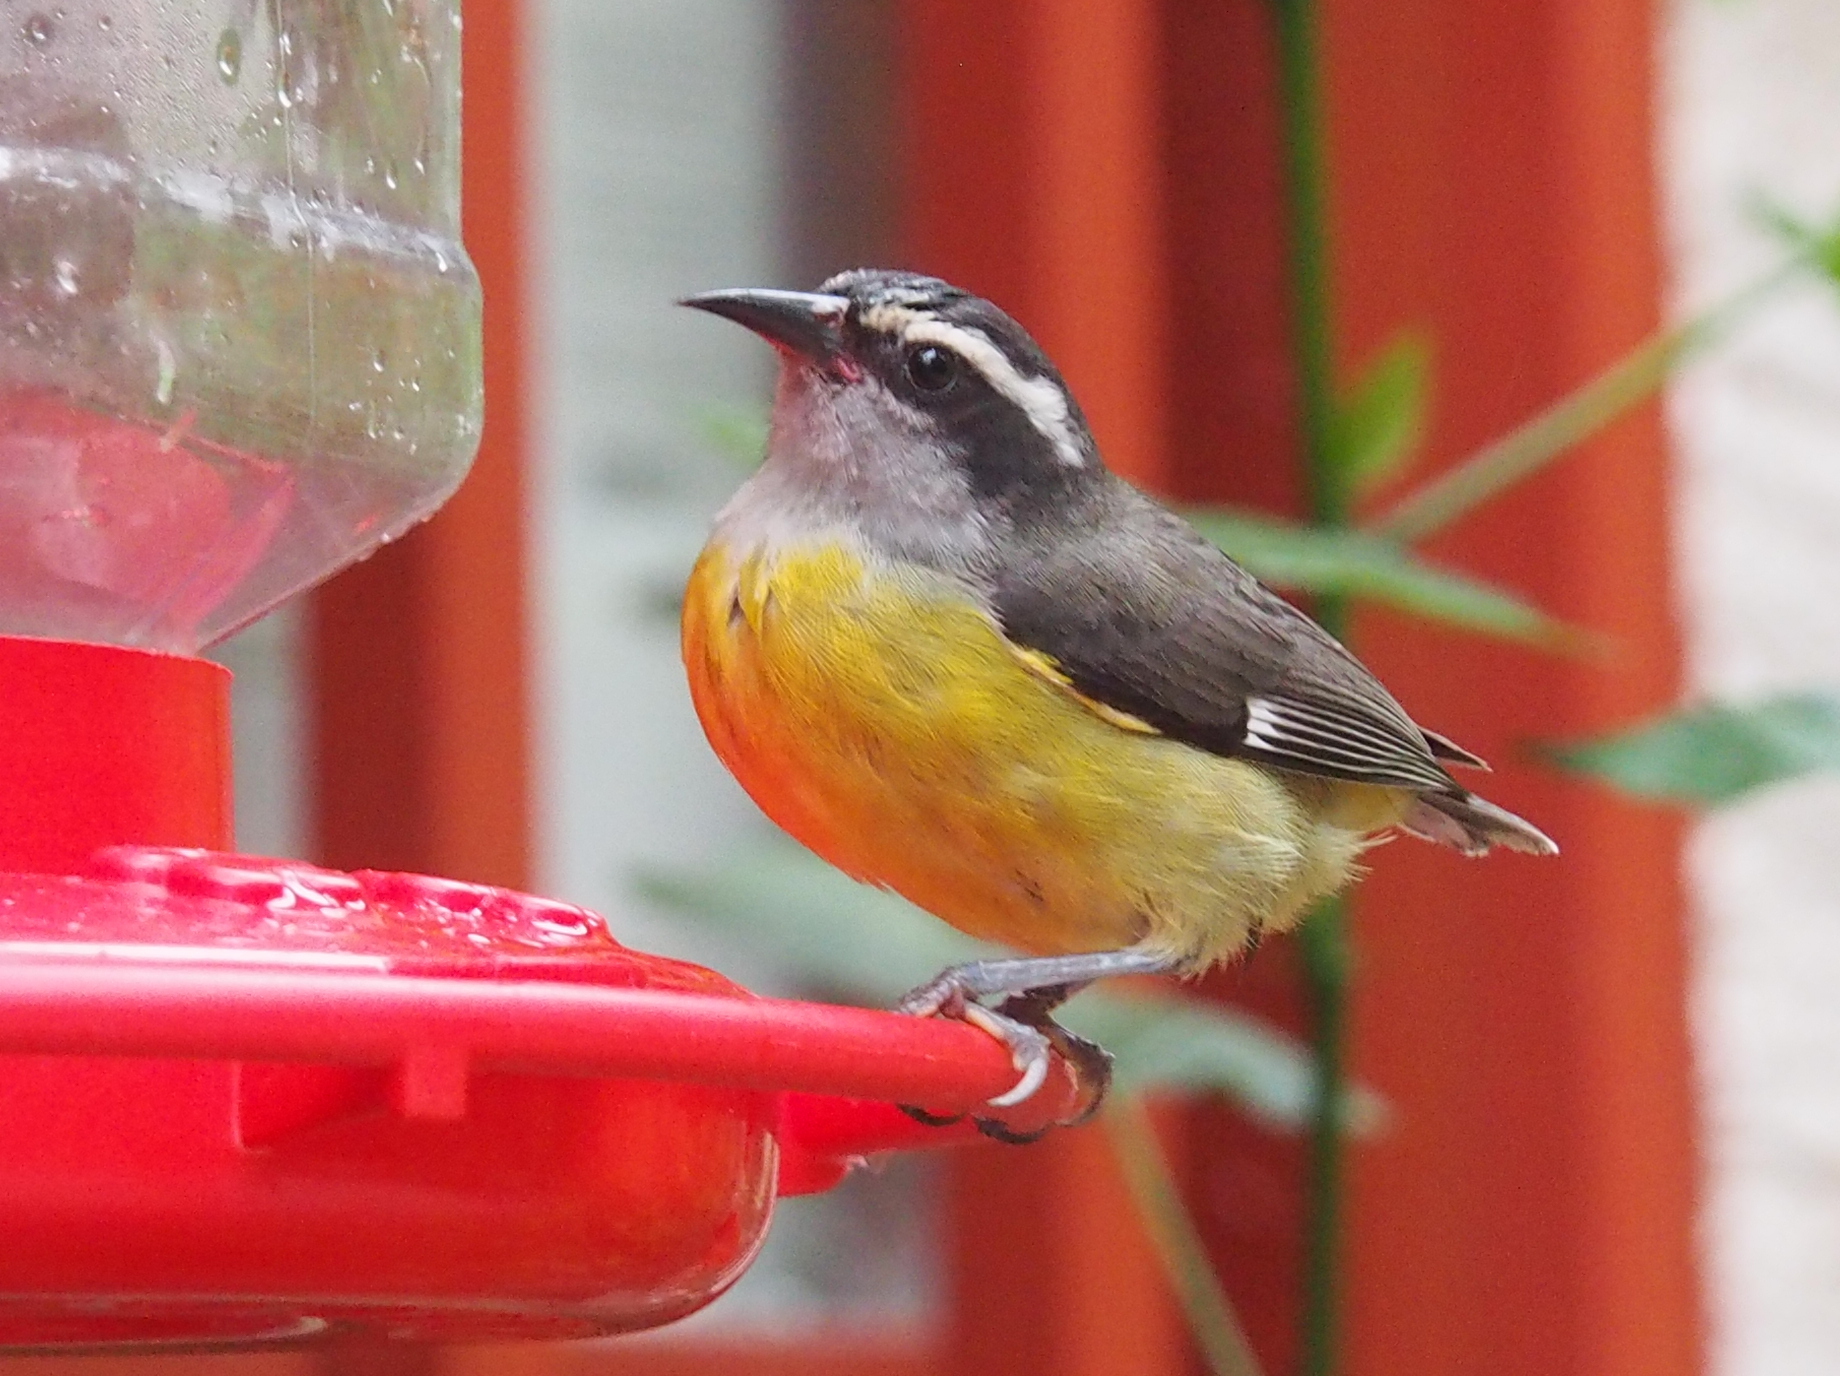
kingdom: Animalia
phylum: Chordata
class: Aves
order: Passeriformes
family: Thraupidae
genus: Coereba
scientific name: Coereba flaveola
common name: Bananaquit
